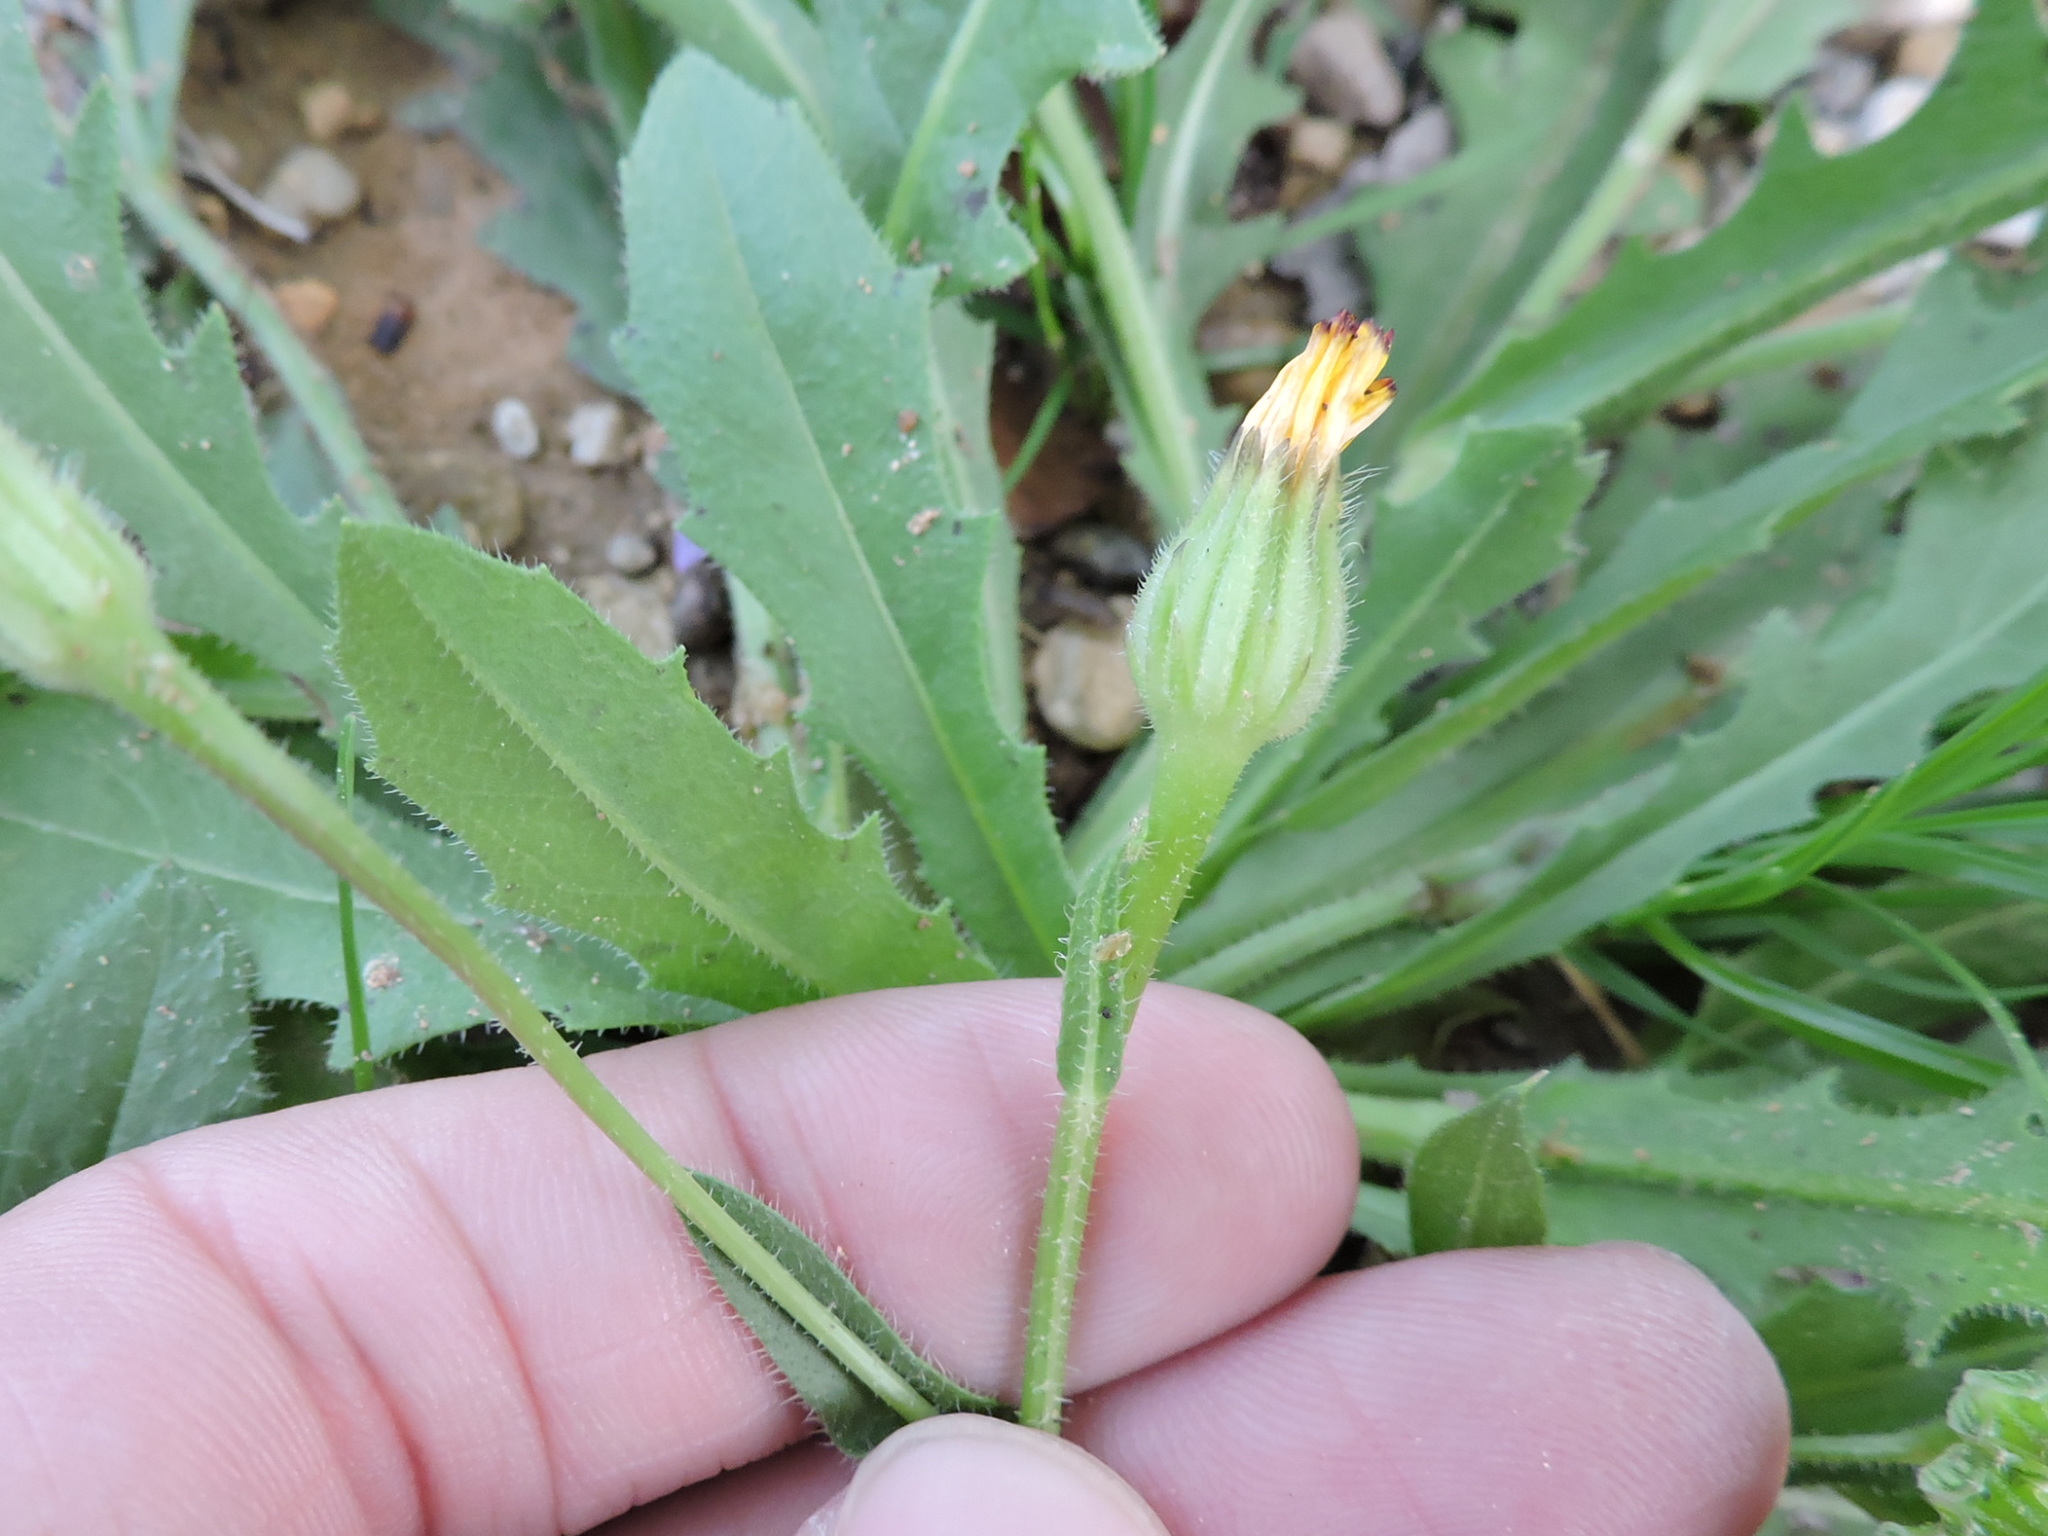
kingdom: Plantae
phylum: Tracheophyta
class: Magnoliopsida
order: Asterales
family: Asteraceae
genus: Hedypnois
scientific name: Hedypnois rhagadioloides
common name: Cretan weed
